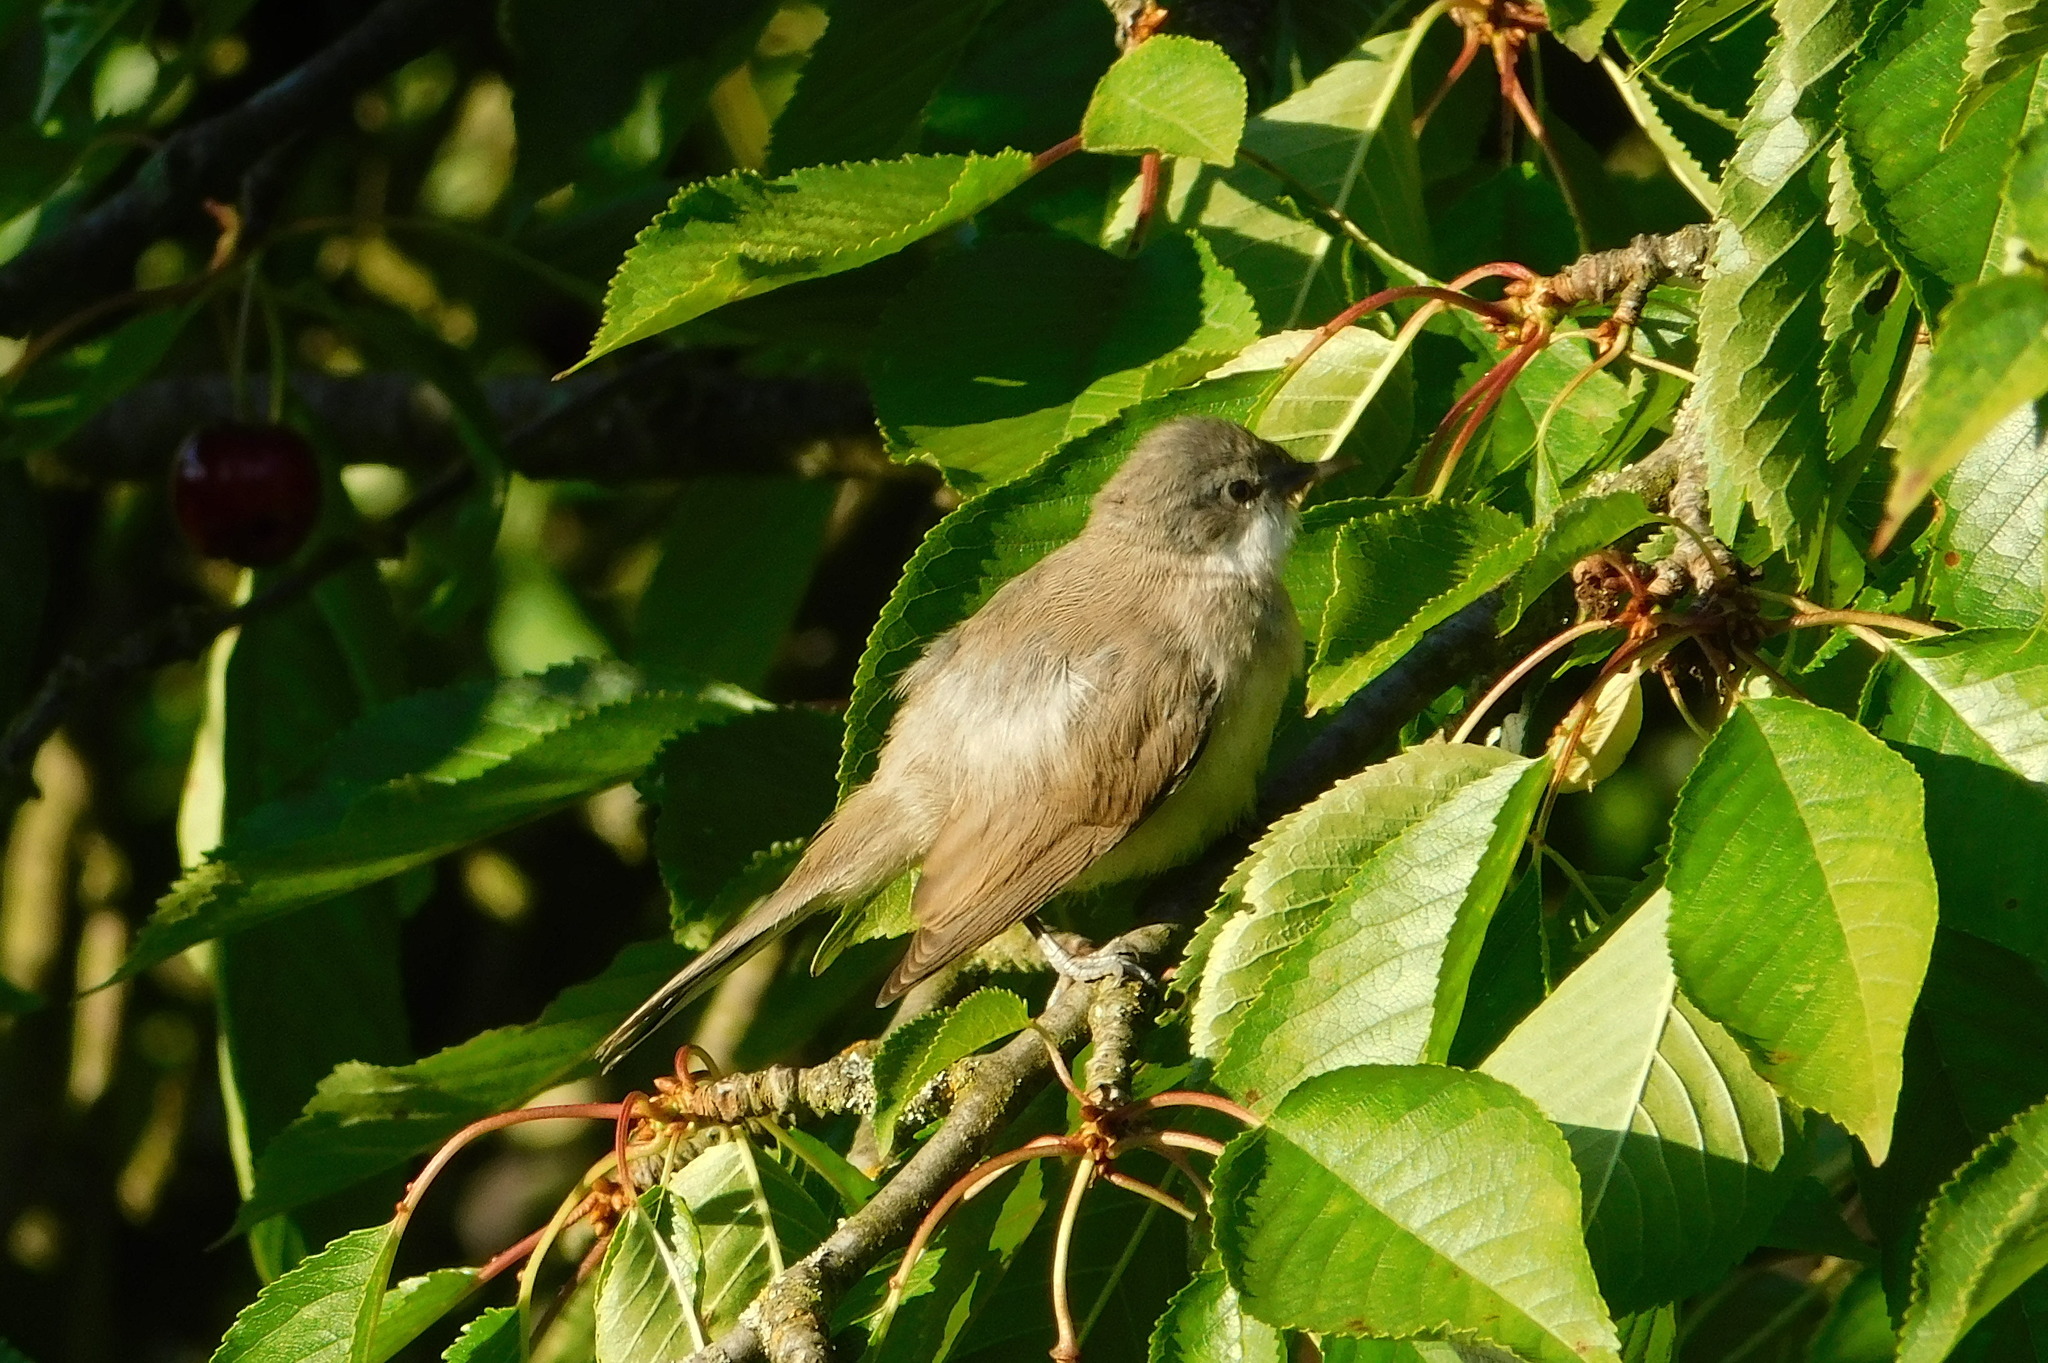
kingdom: Animalia
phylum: Chordata
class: Aves
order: Passeriformes
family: Sylviidae
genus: Sylvia
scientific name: Sylvia curruca
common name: Lesser whitethroat
